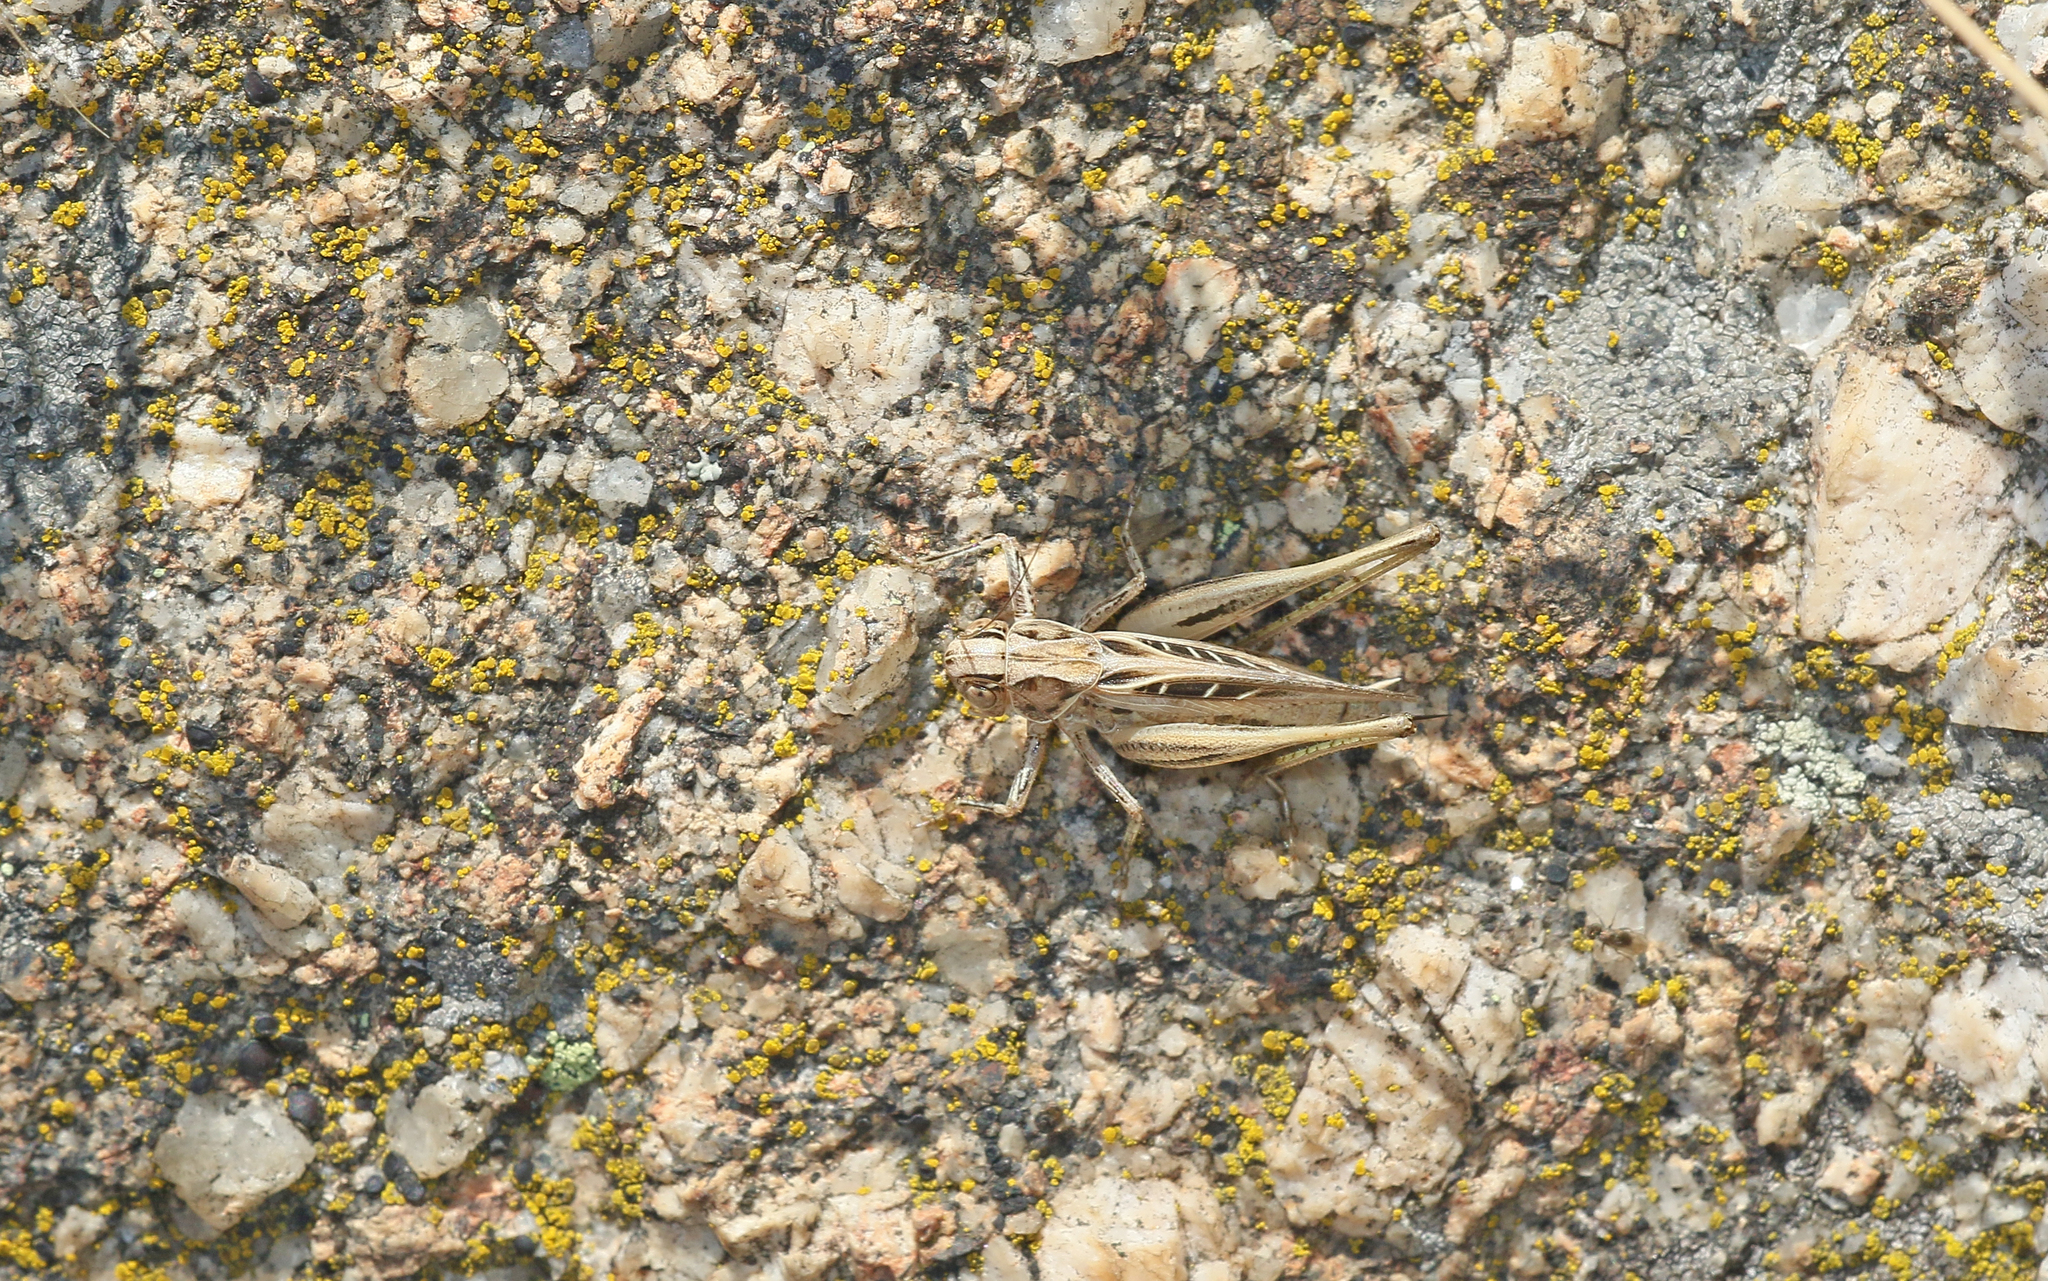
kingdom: Animalia
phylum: Arthropoda
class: Insecta
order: Orthoptera
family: Tettigoniidae
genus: Tessellana
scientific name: Tessellana tessellata
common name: Grasshopper
